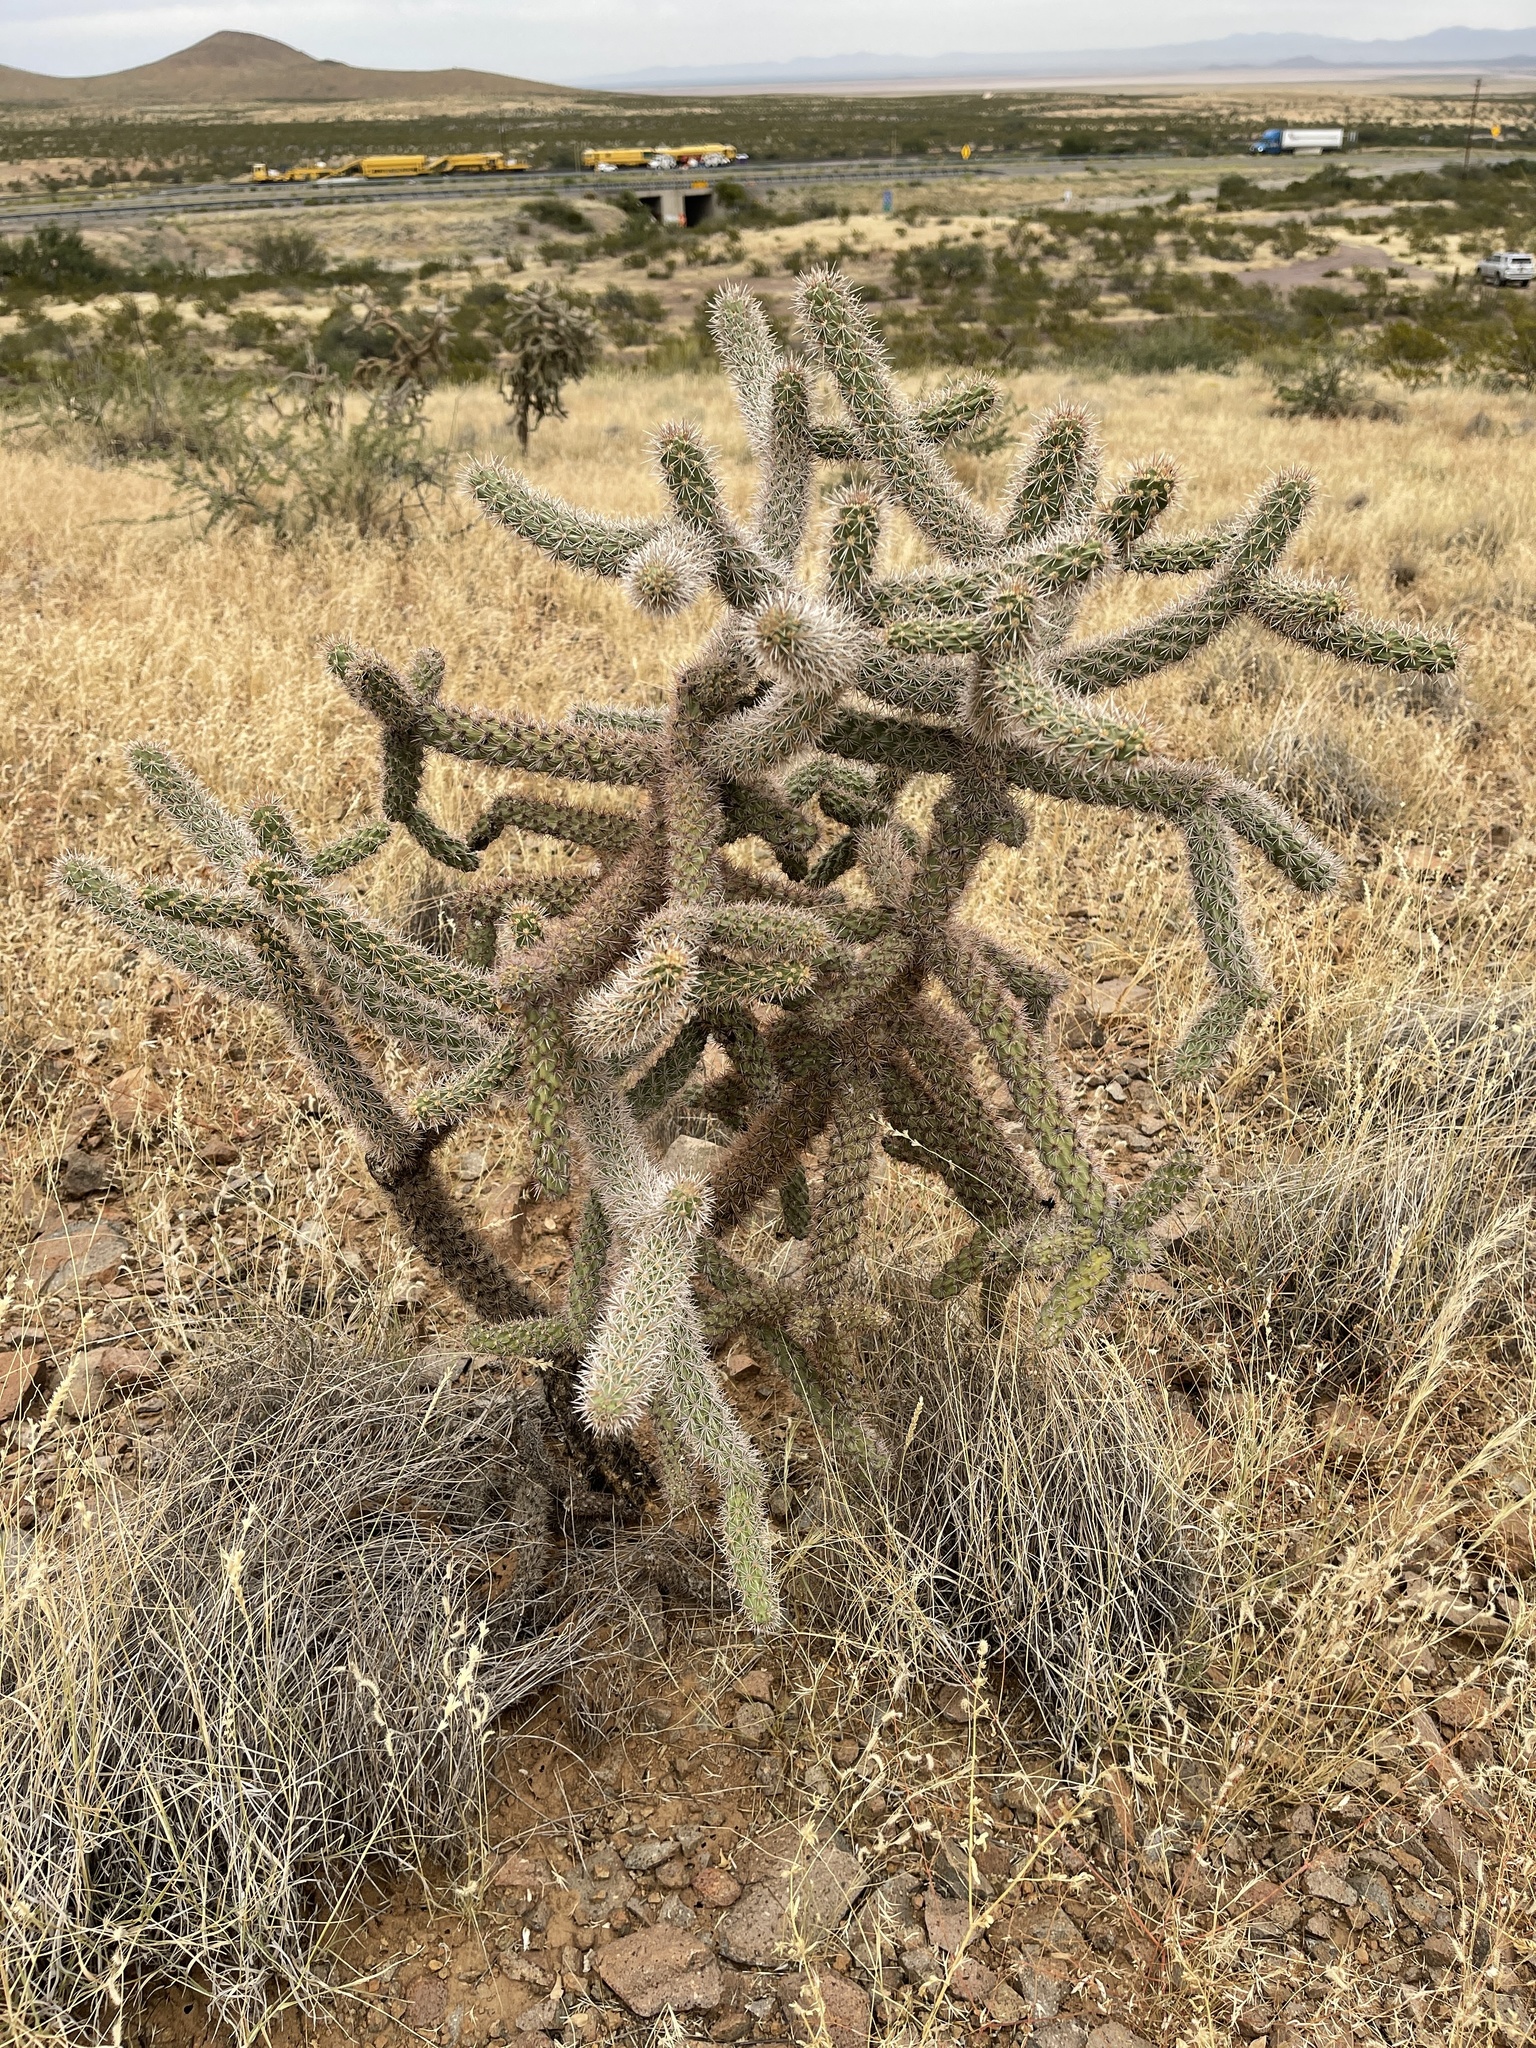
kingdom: Plantae
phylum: Tracheophyta
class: Magnoliopsida
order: Caryophyllales
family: Cactaceae
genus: Cylindropuntia
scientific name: Cylindropuntia imbricata
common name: Candelabrum cactus
